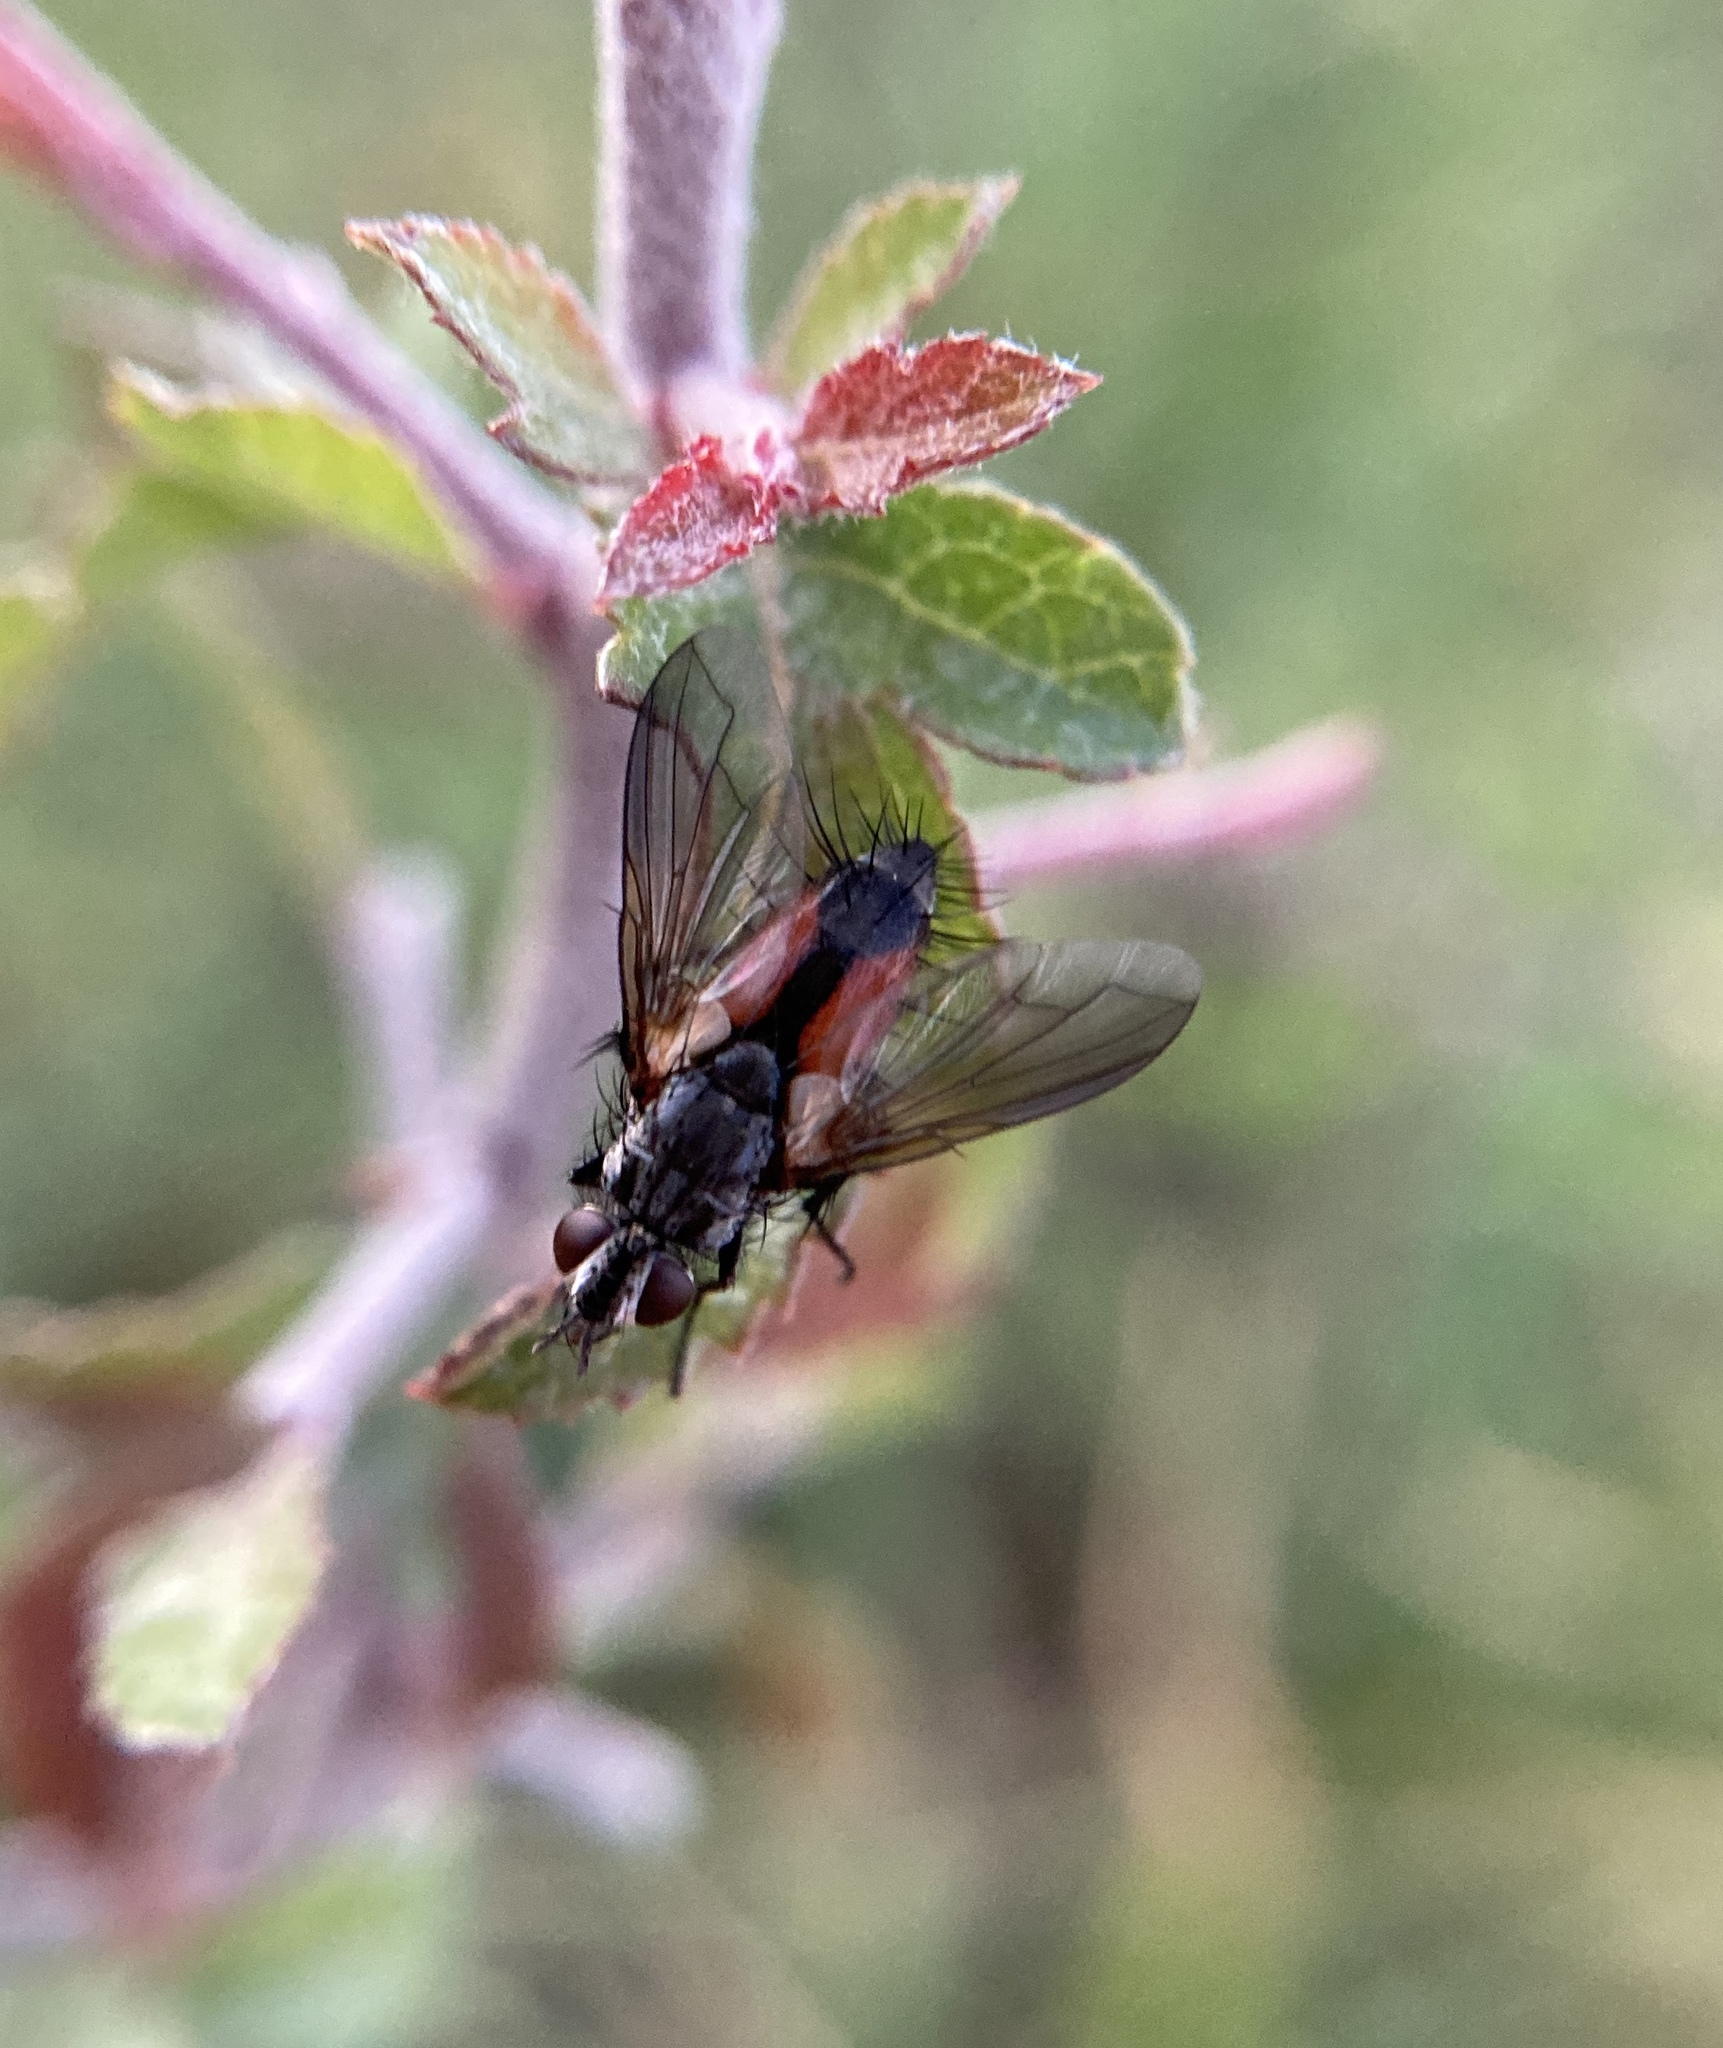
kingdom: Animalia
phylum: Arthropoda
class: Insecta
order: Diptera
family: Tachinidae
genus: Eriothrix
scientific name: Eriothrix rufomaculatus
